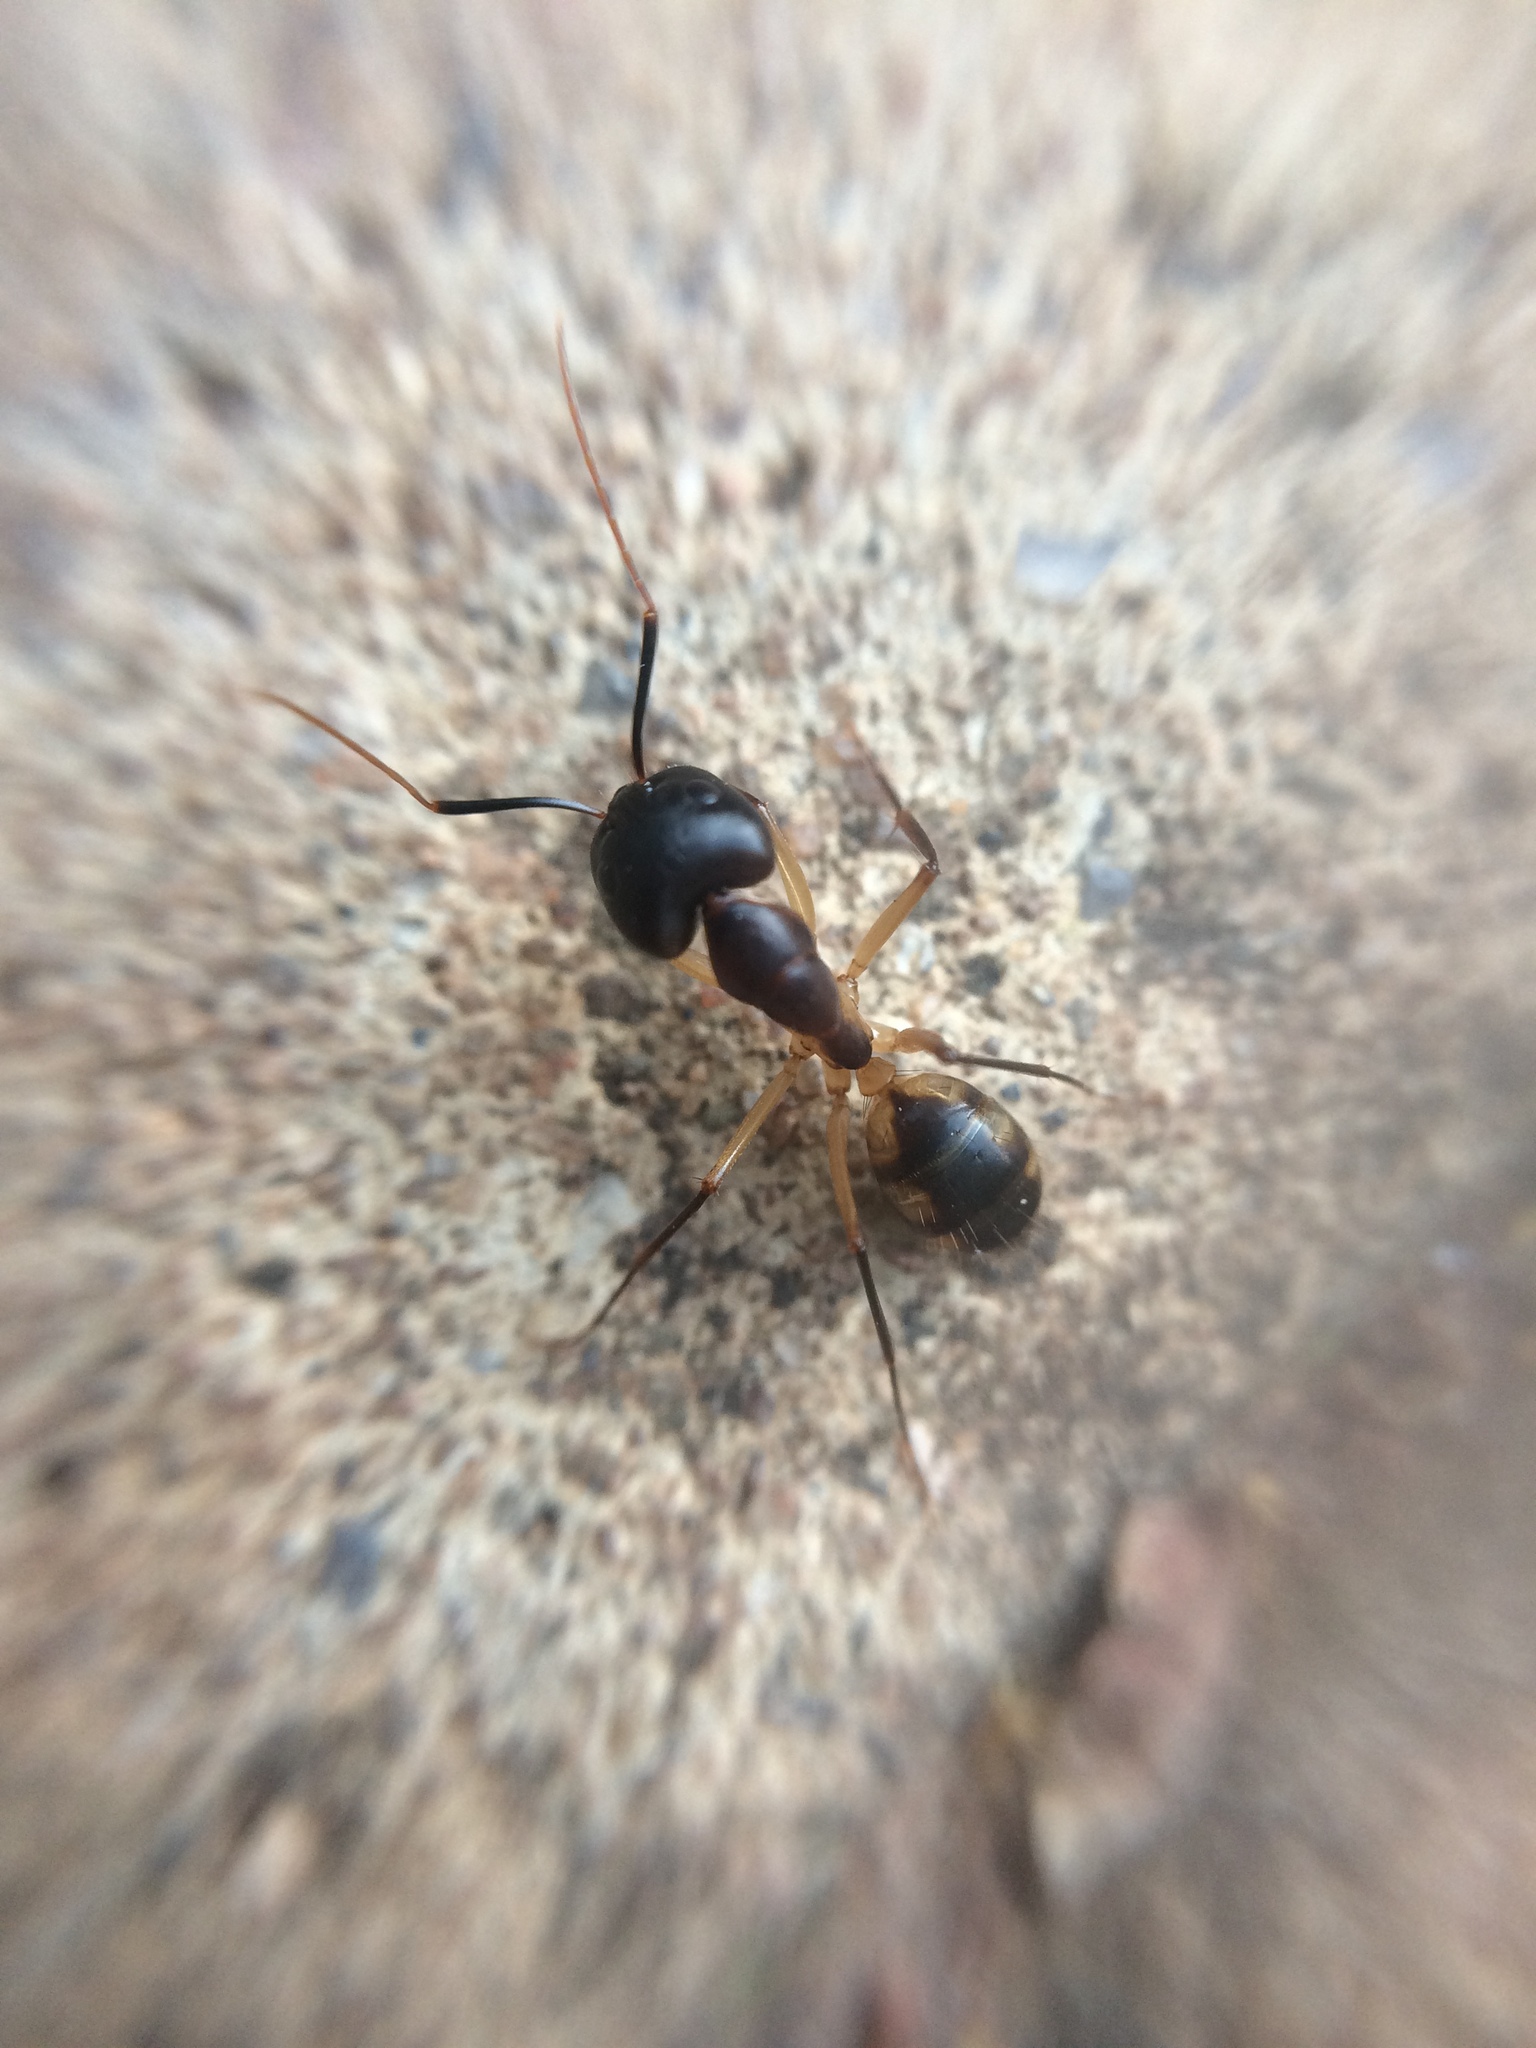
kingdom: Animalia
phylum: Arthropoda
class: Insecta
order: Hymenoptera
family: Formicidae
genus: Camponotus
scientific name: Camponotus maculatus
